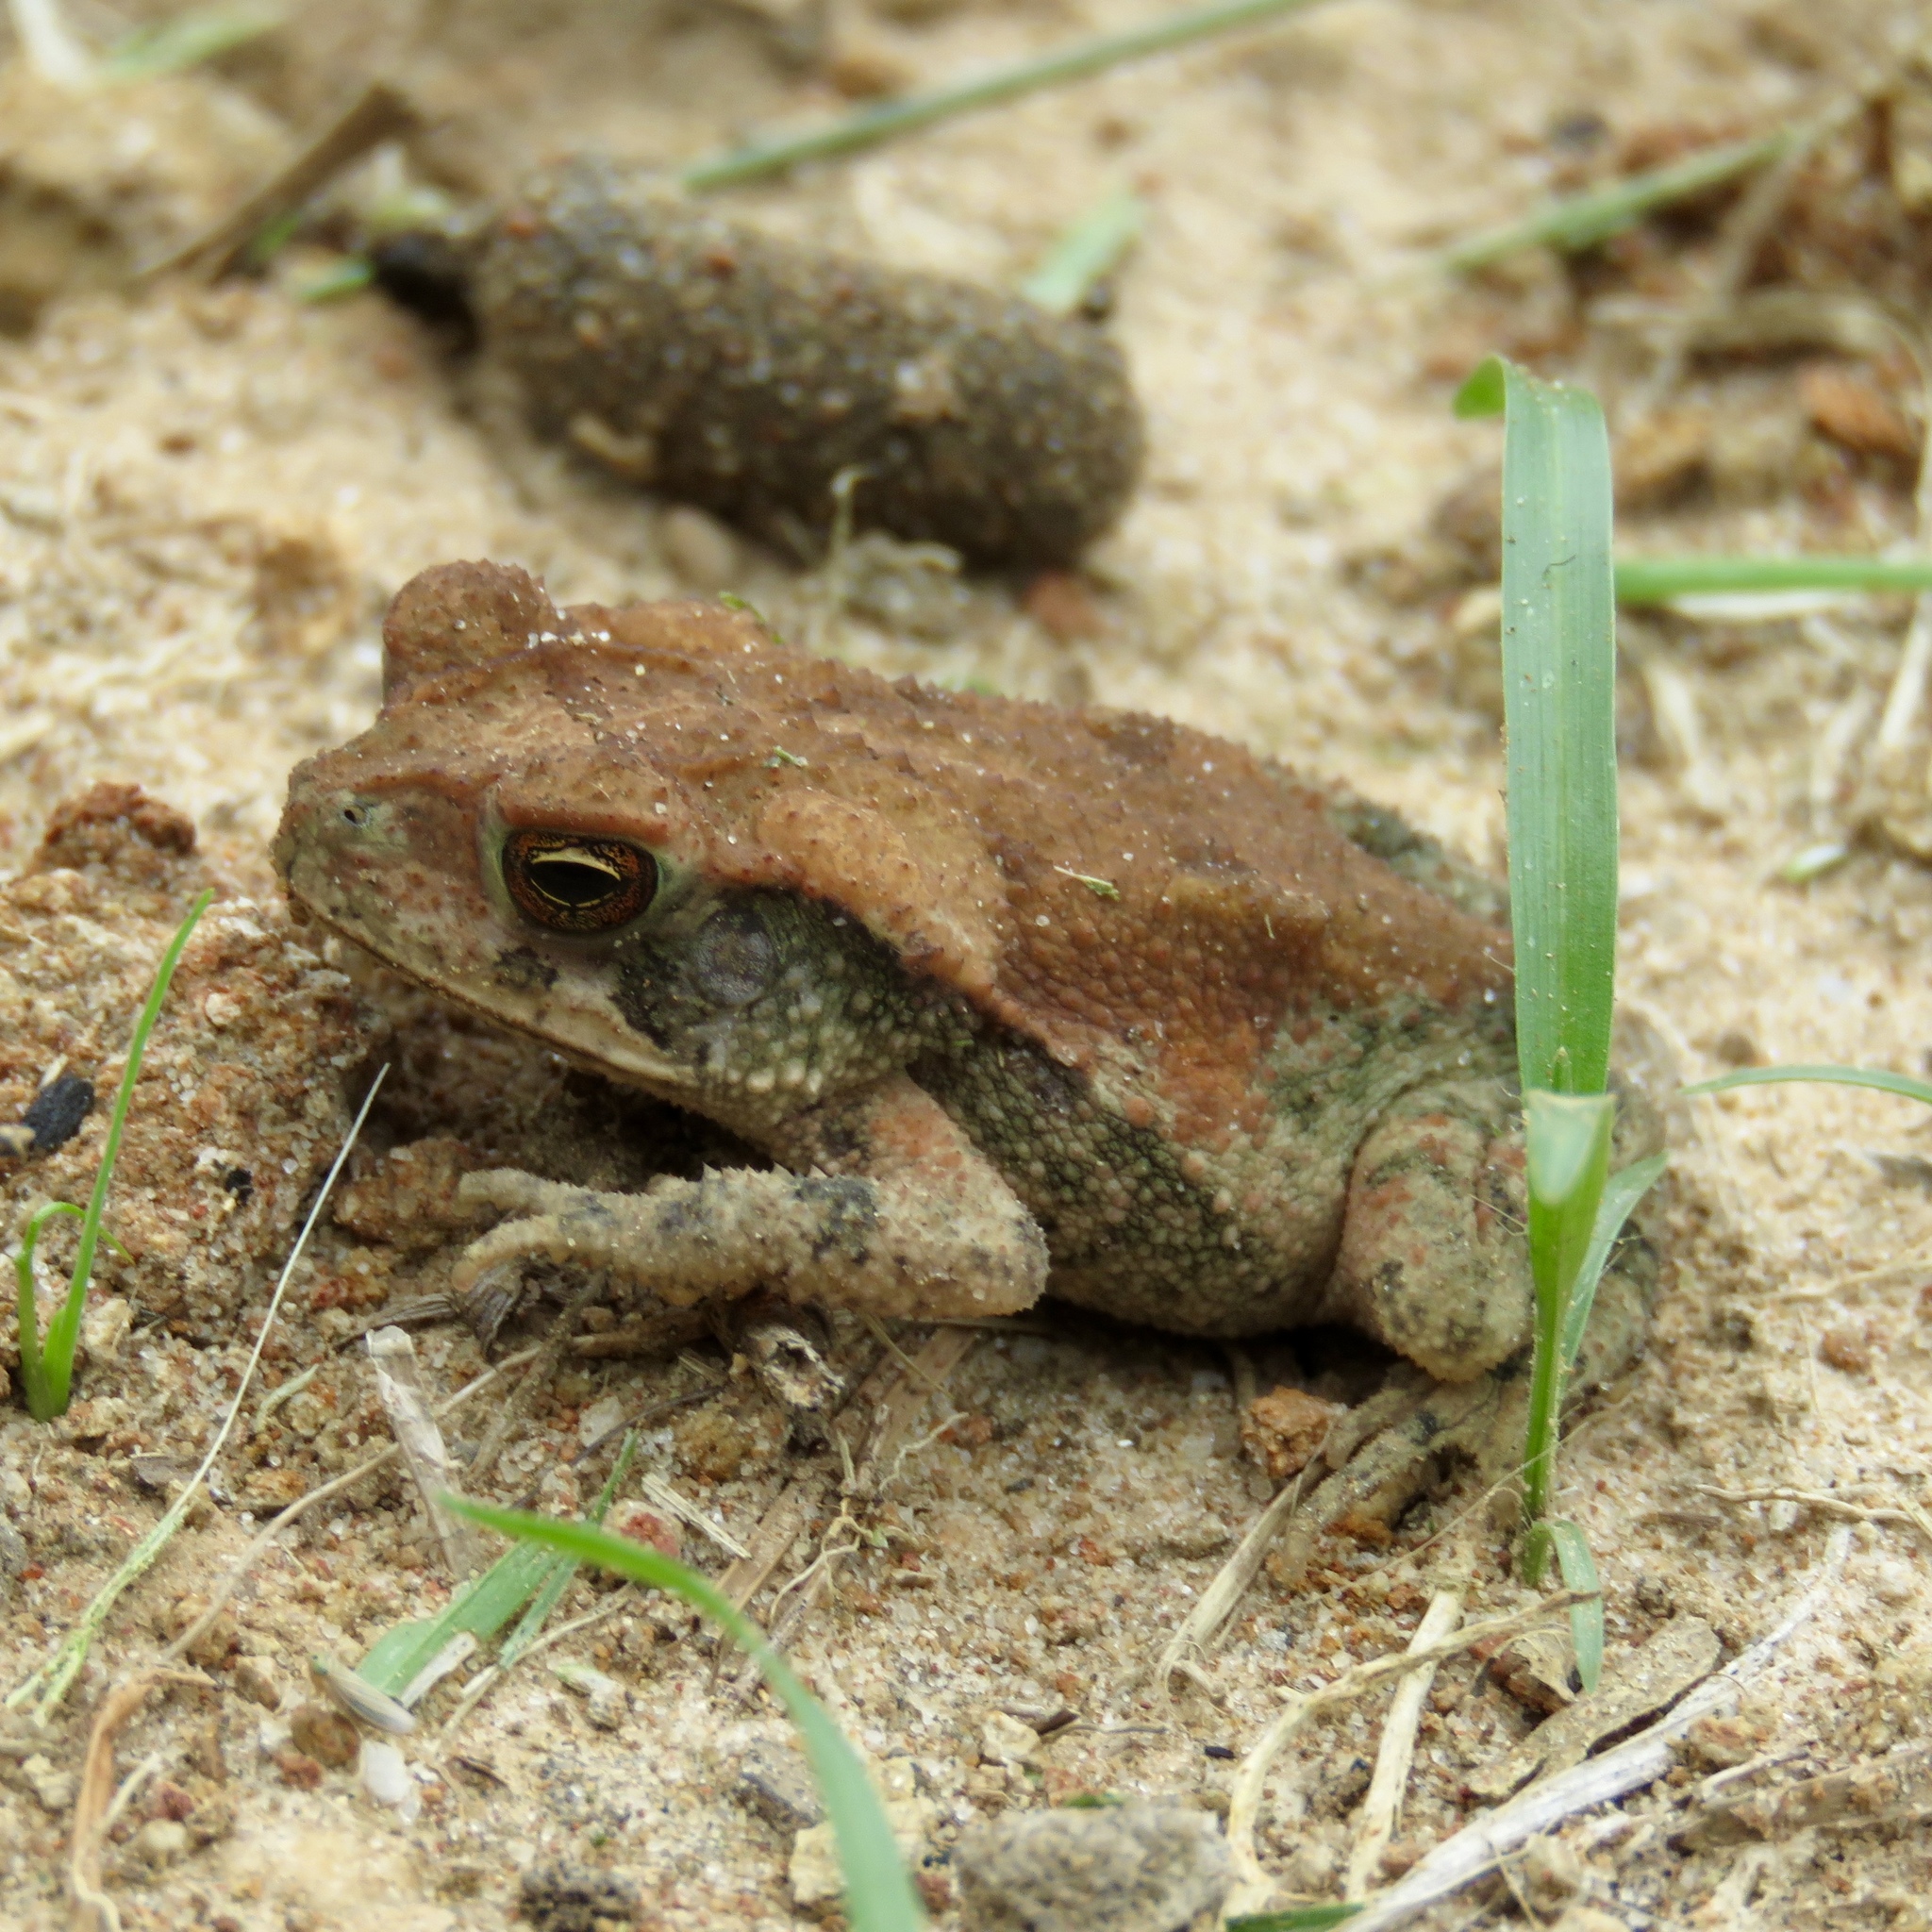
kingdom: Animalia
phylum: Chordata
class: Amphibia
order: Anura
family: Bufonidae
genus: Incilius
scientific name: Incilius nebulifer
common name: Gulf coast toad
